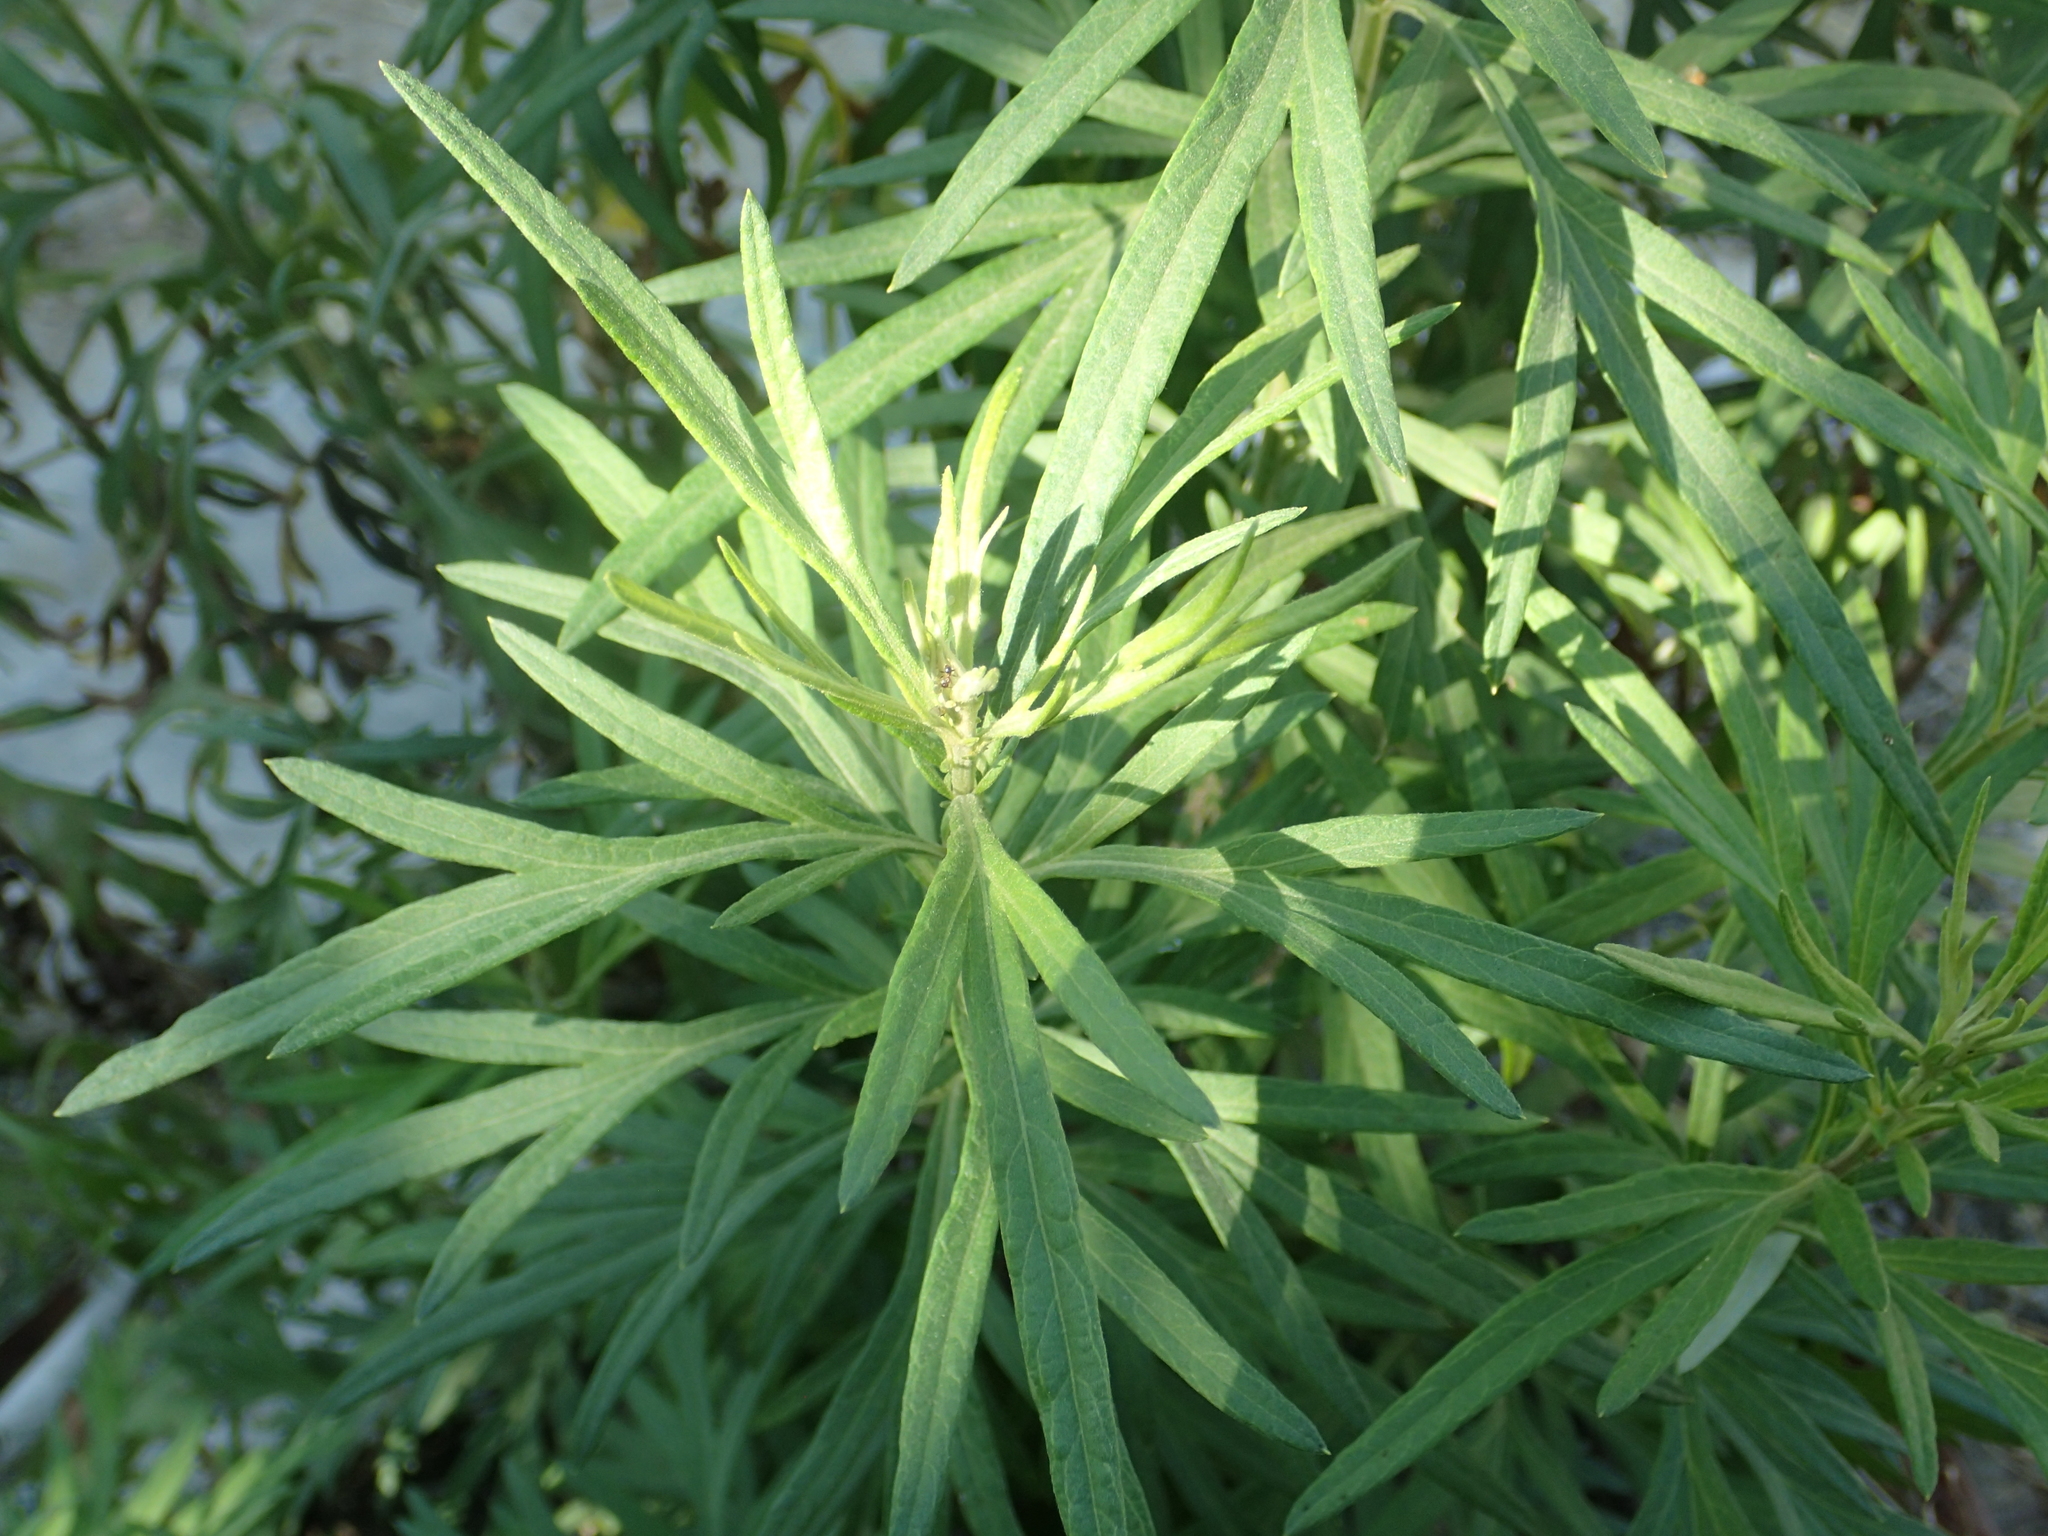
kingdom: Plantae
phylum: Tracheophyta
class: Magnoliopsida
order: Asterales
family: Asteraceae
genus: Artemisia
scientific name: Artemisia indica
